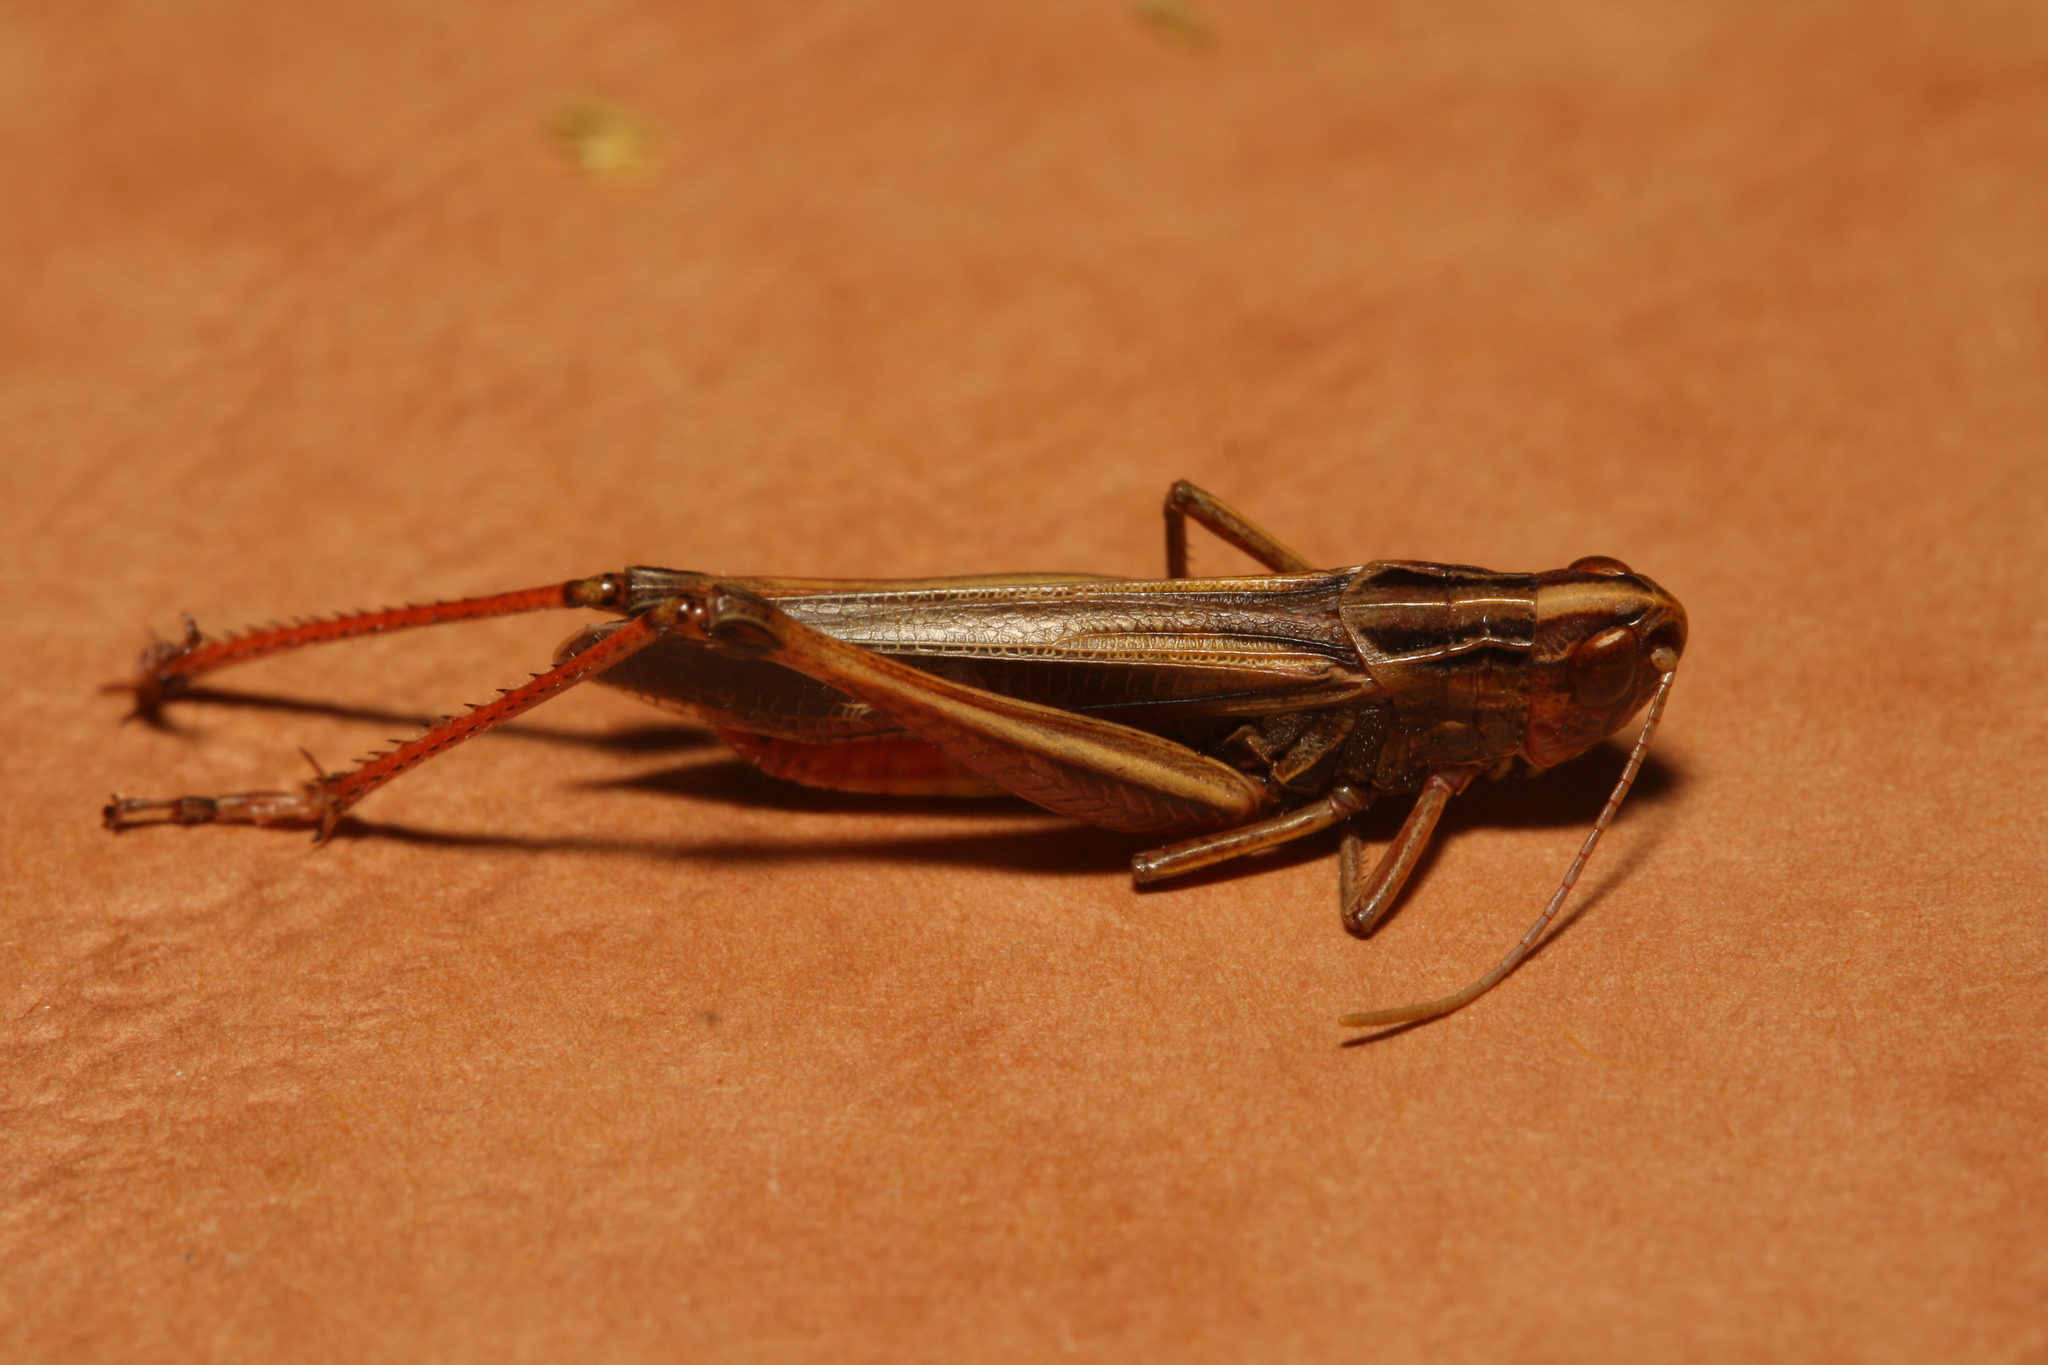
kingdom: Animalia
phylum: Arthropoda
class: Insecta
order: Orthoptera
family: Acrididae
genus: Stenobothrus
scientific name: Stenobothrus lineatus
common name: Stripe-winged grasshopper
